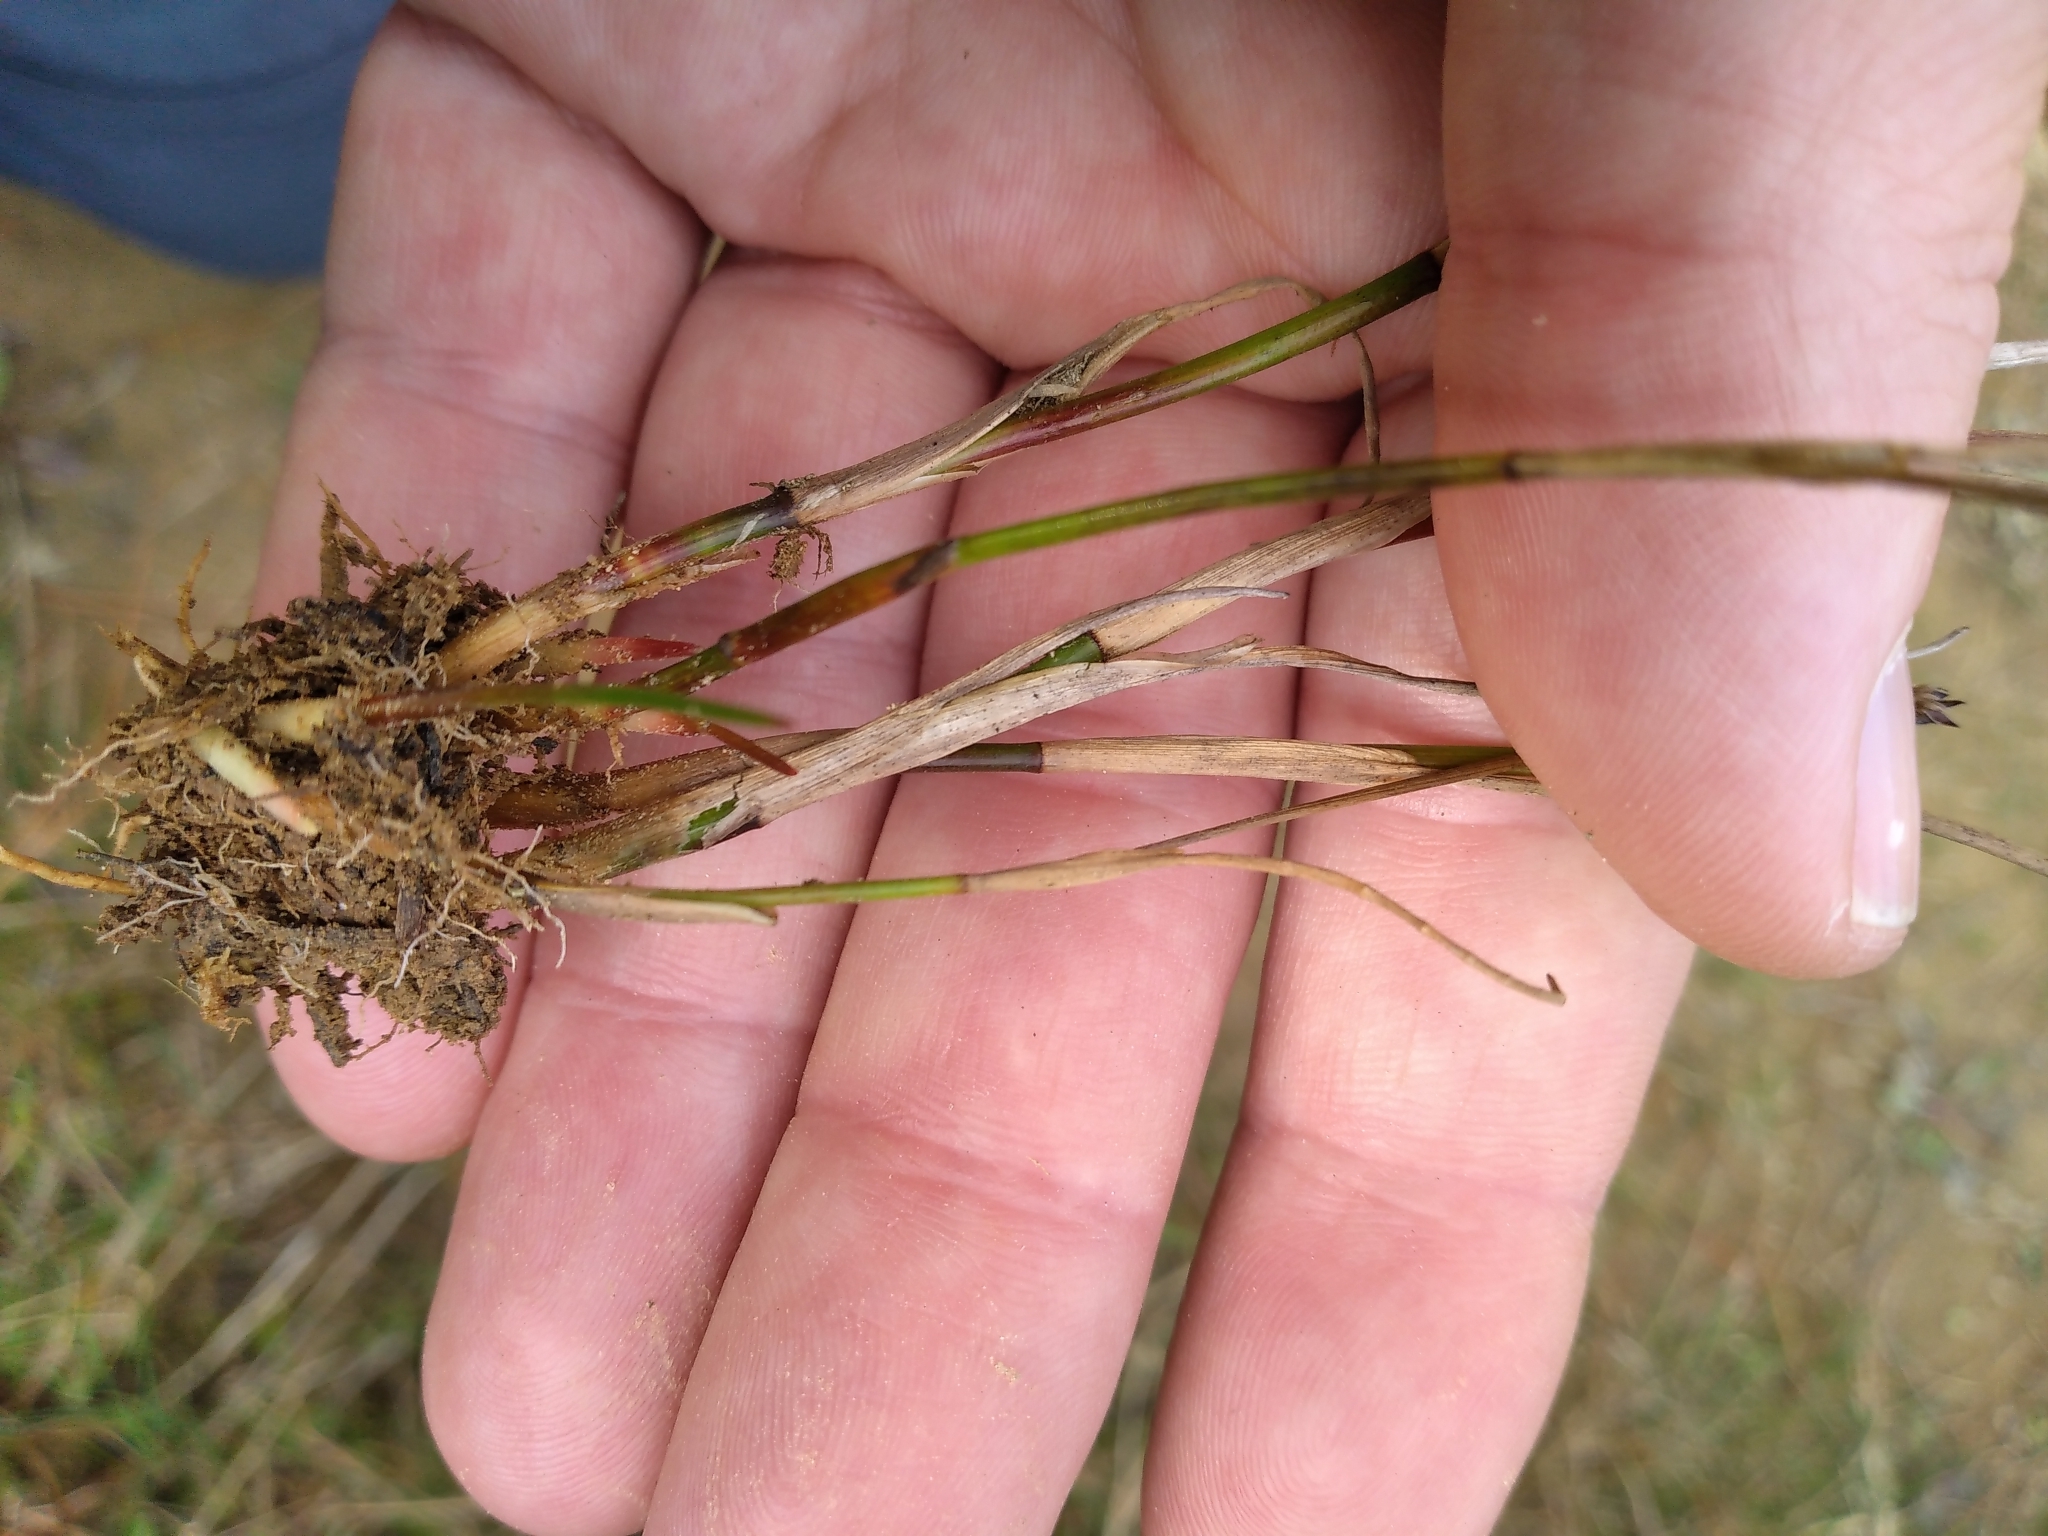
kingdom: Plantae
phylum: Tracheophyta
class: Liliopsida
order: Poales
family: Juncaceae
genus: Juncus
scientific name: Juncus articulatus
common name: Jointed rush
